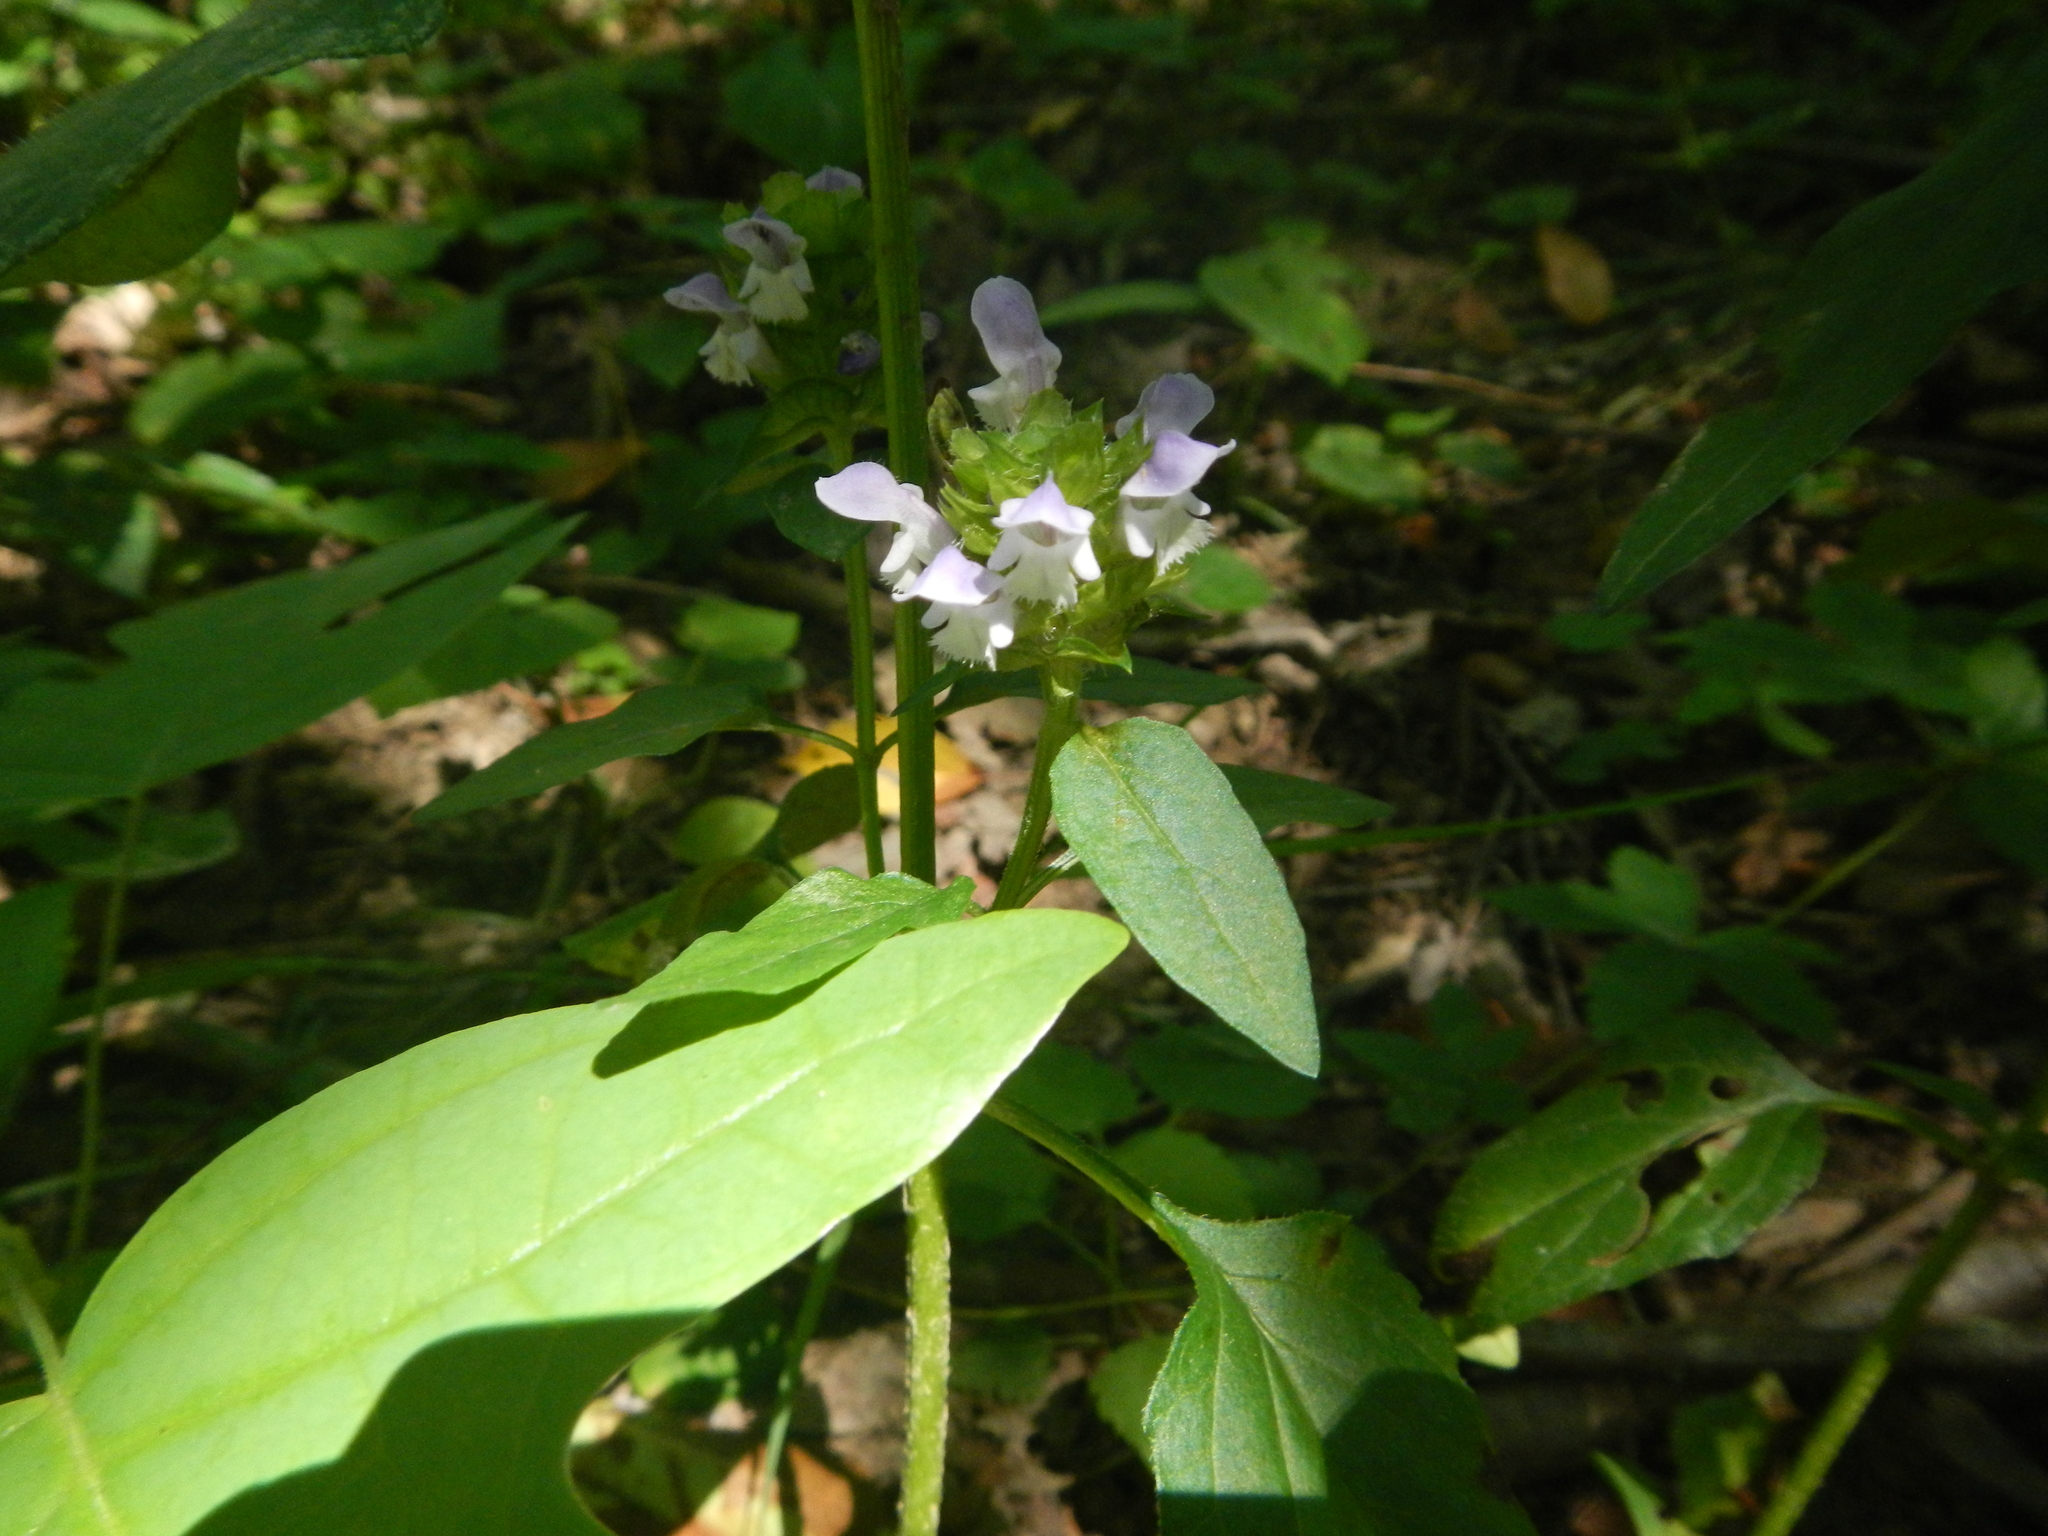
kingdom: Plantae
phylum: Tracheophyta
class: Magnoliopsida
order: Lamiales
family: Lamiaceae
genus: Prunella
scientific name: Prunella vulgaris
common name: Heal-all
